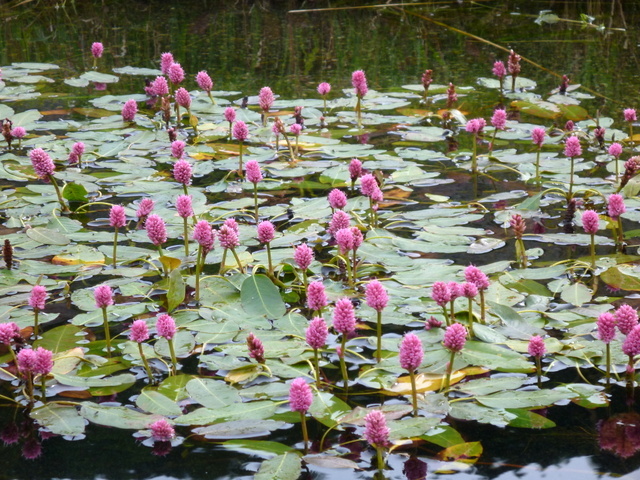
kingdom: Plantae
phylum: Tracheophyta
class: Magnoliopsida
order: Caryophyllales
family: Polygonaceae
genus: Persicaria
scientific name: Persicaria amphibia
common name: Amphibious bistort
